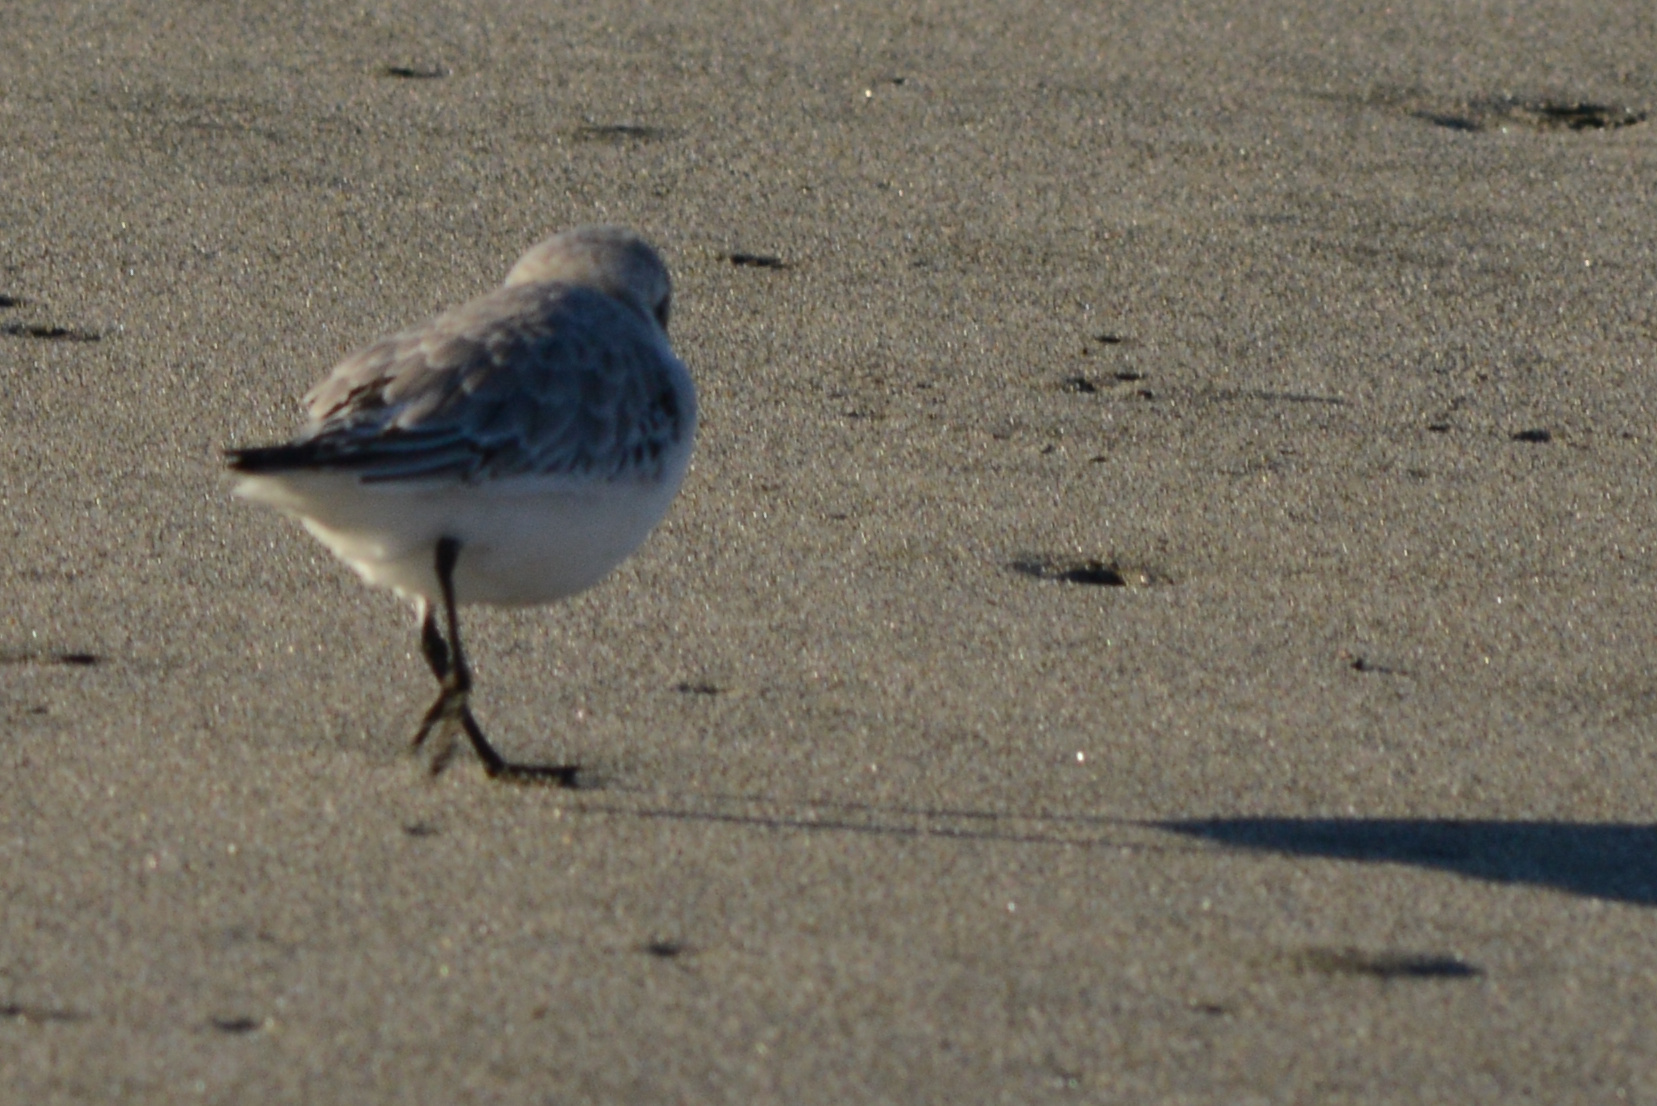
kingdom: Animalia
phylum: Chordata
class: Aves
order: Charadriiformes
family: Scolopacidae
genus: Calidris
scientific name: Calidris alba
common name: Sanderling
